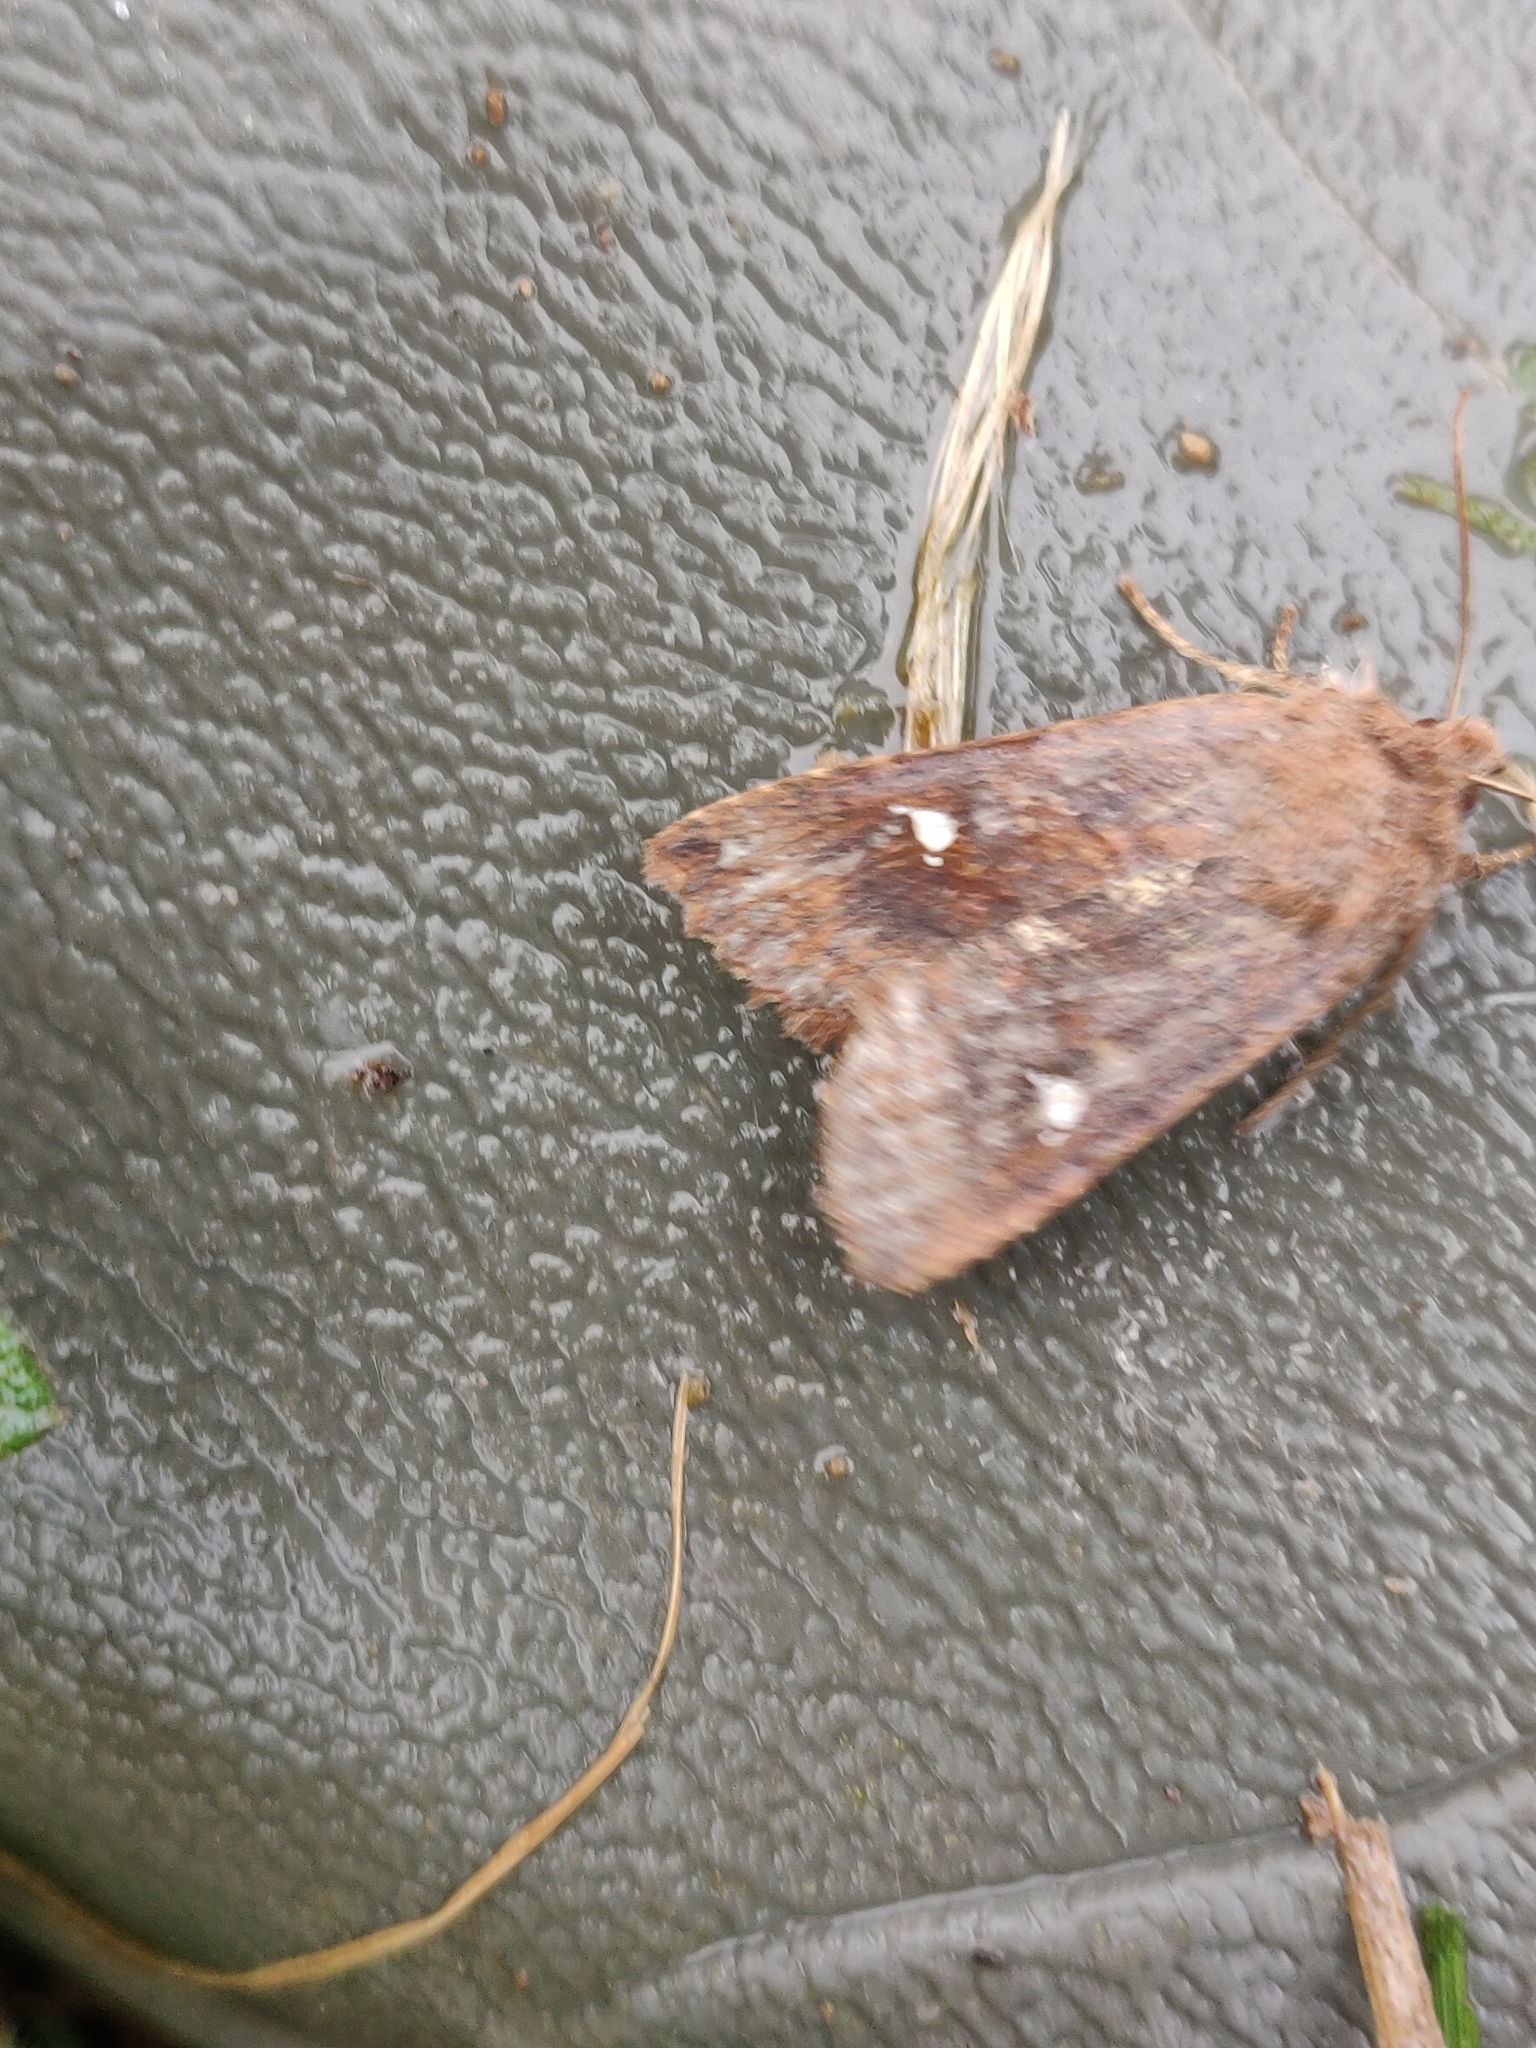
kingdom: Animalia
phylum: Arthropoda
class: Insecta
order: Lepidoptera
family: Noctuidae
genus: Eupsilia
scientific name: Eupsilia transversa
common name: Satellite
